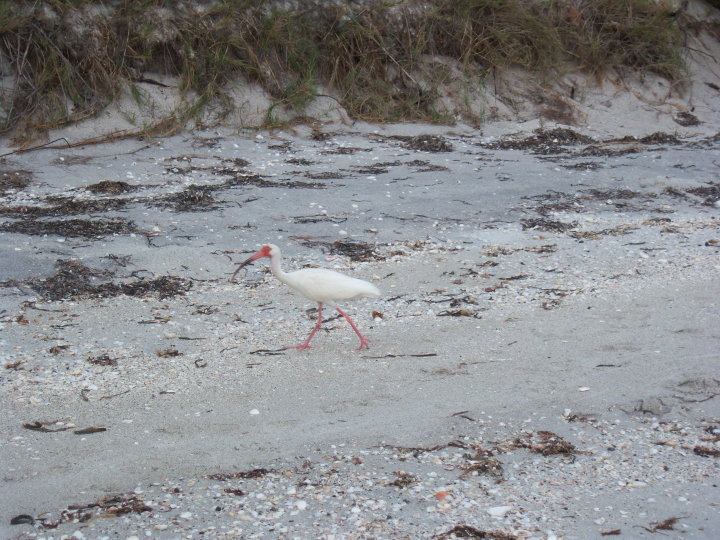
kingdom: Animalia
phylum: Chordata
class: Aves
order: Pelecaniformes
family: Threskiornithidae
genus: Eudocimus
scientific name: Eudocimus albus
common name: White ibis
